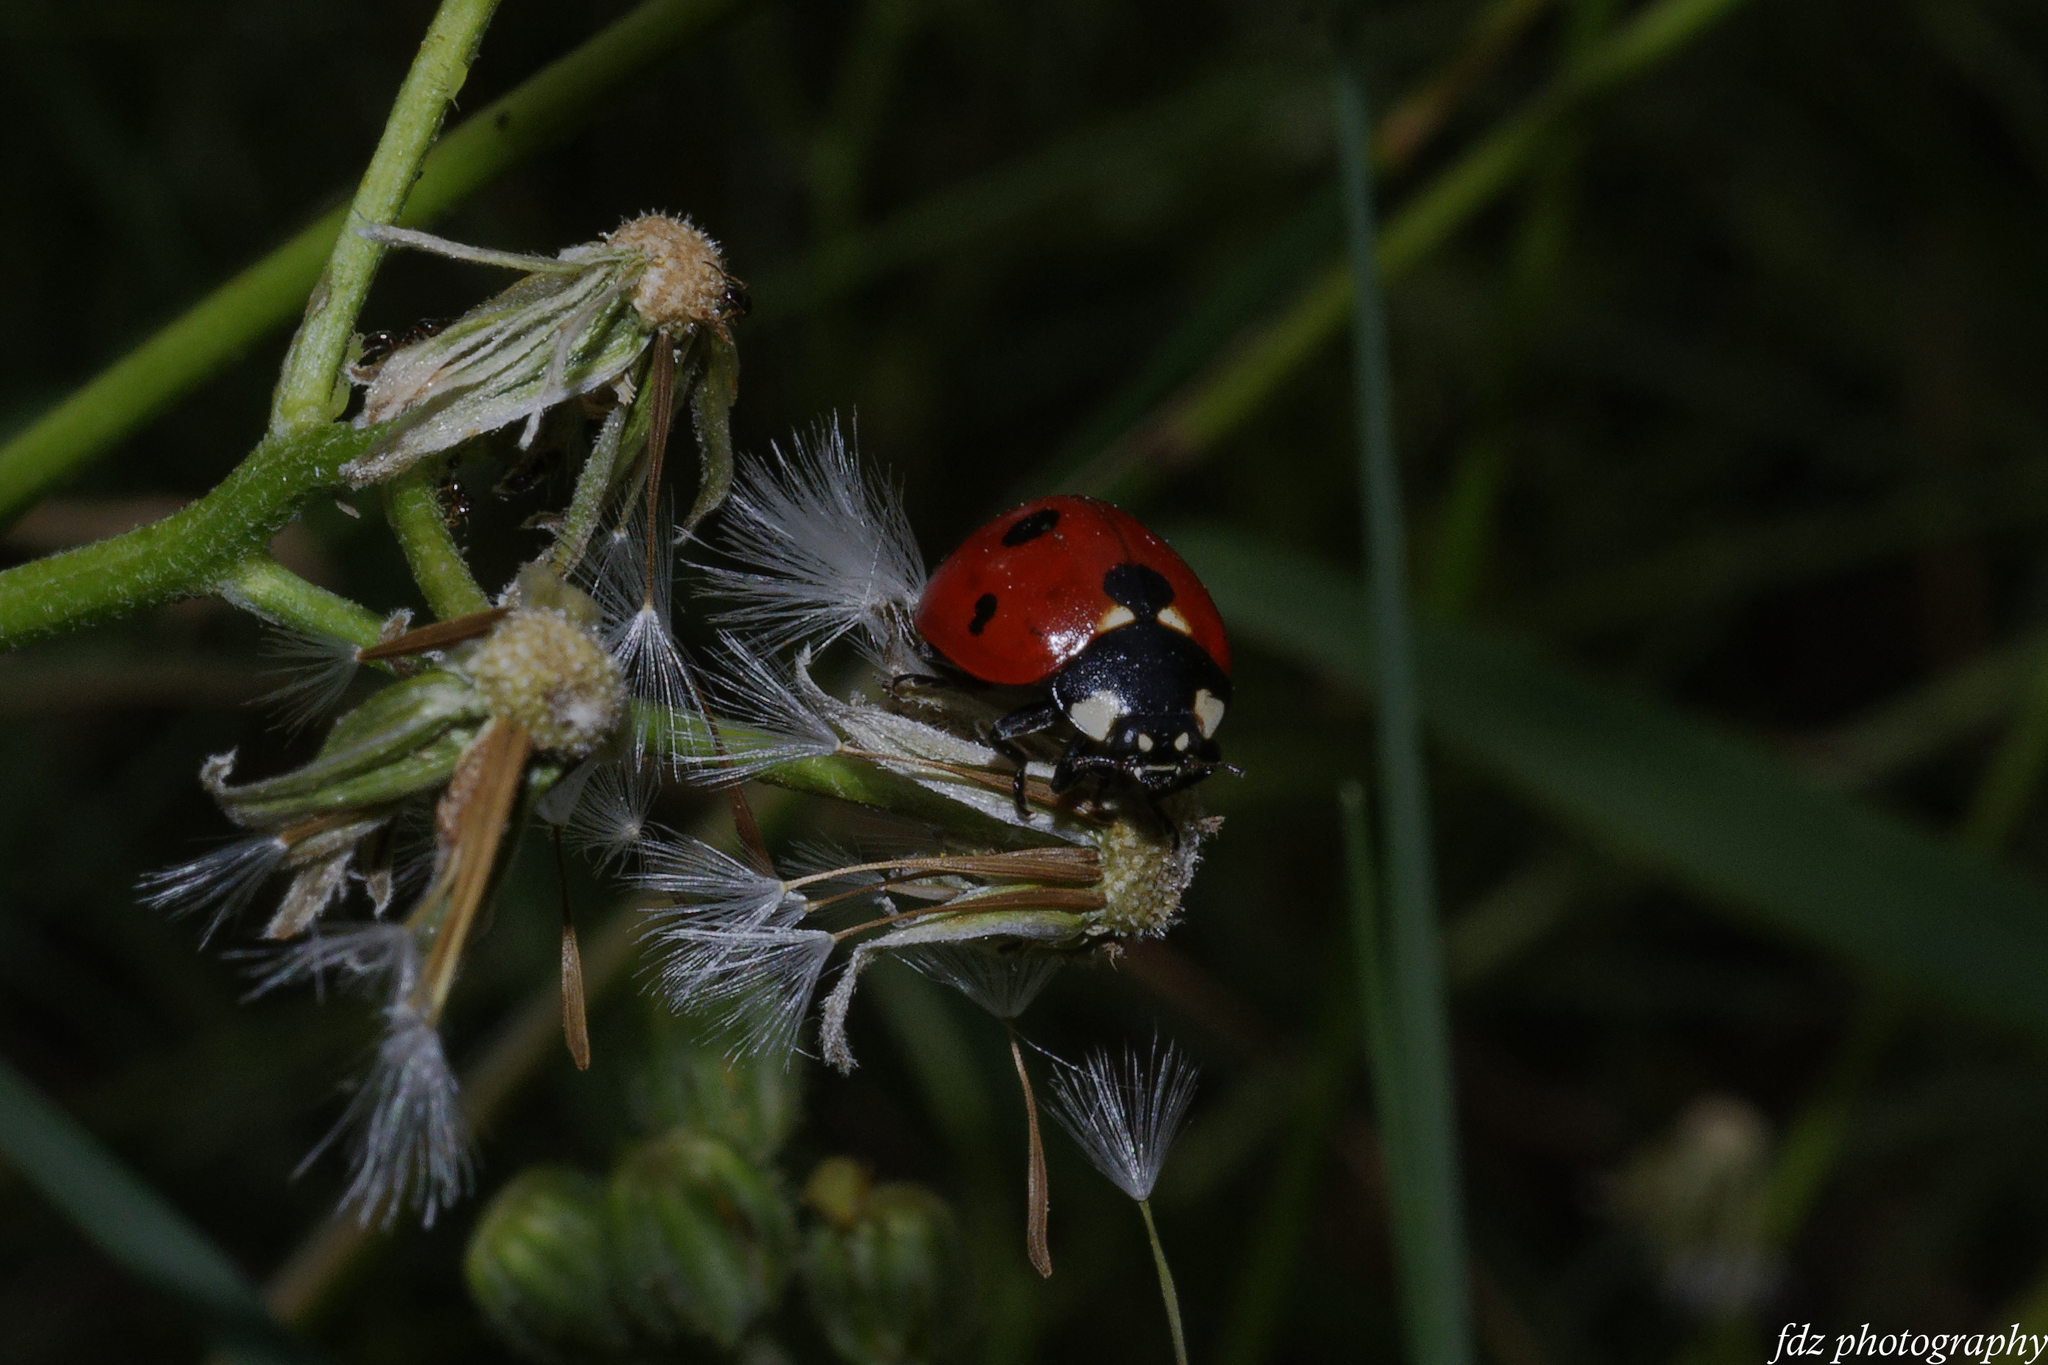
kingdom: Animalia
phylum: Arthropoda
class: Insecta
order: Coleoptera
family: Coccinellidae
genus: Coccinella
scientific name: Coccinella septempunctata
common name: Sevenspotted lady beetle
